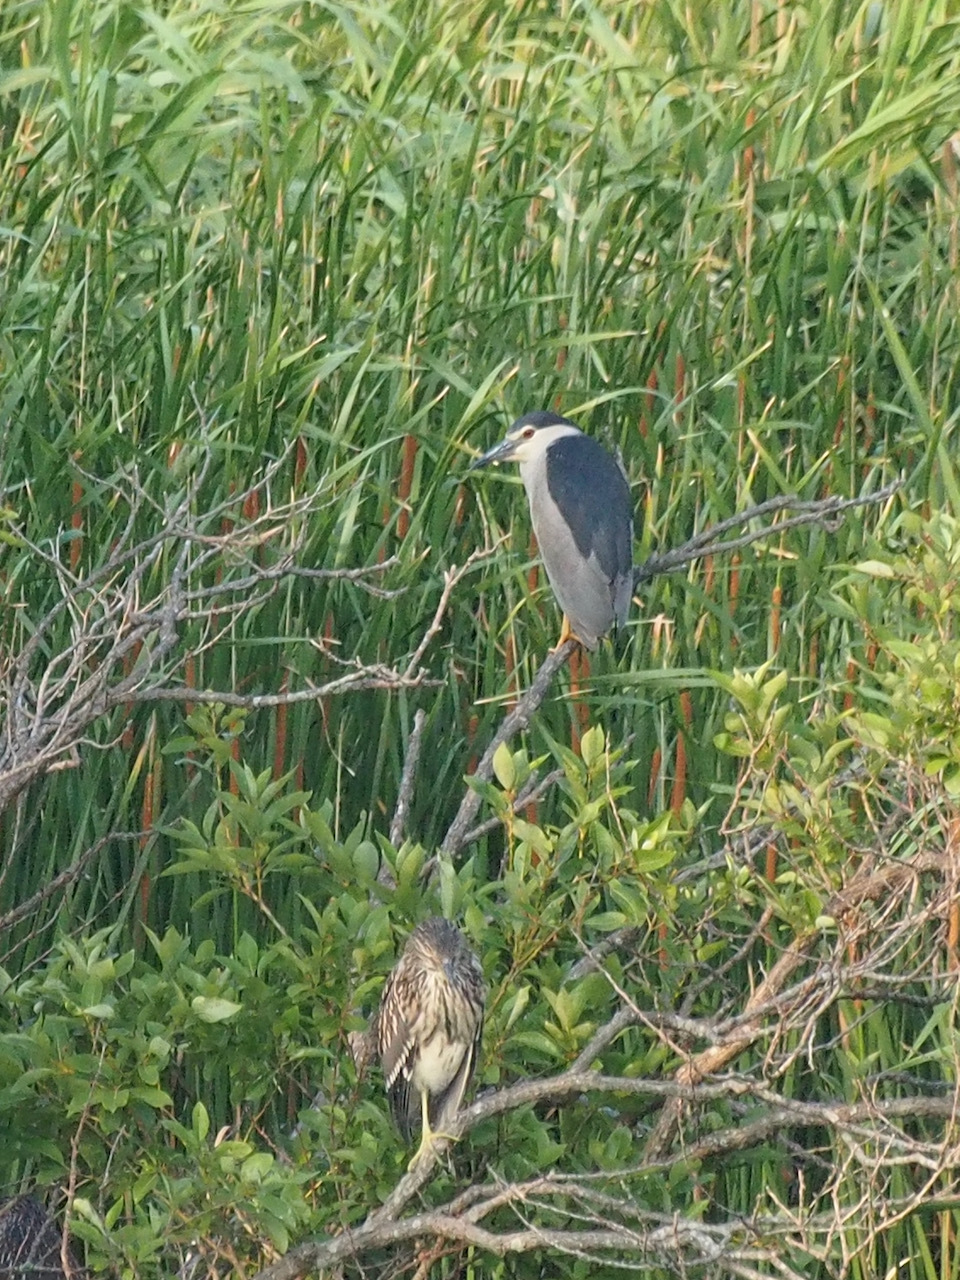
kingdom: Animalia
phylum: Chordata
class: Aves
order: Pelecaniformes
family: Ardeidae
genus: Nycticorax
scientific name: Nycticorax nycticorax
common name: Black-crowned night heron
